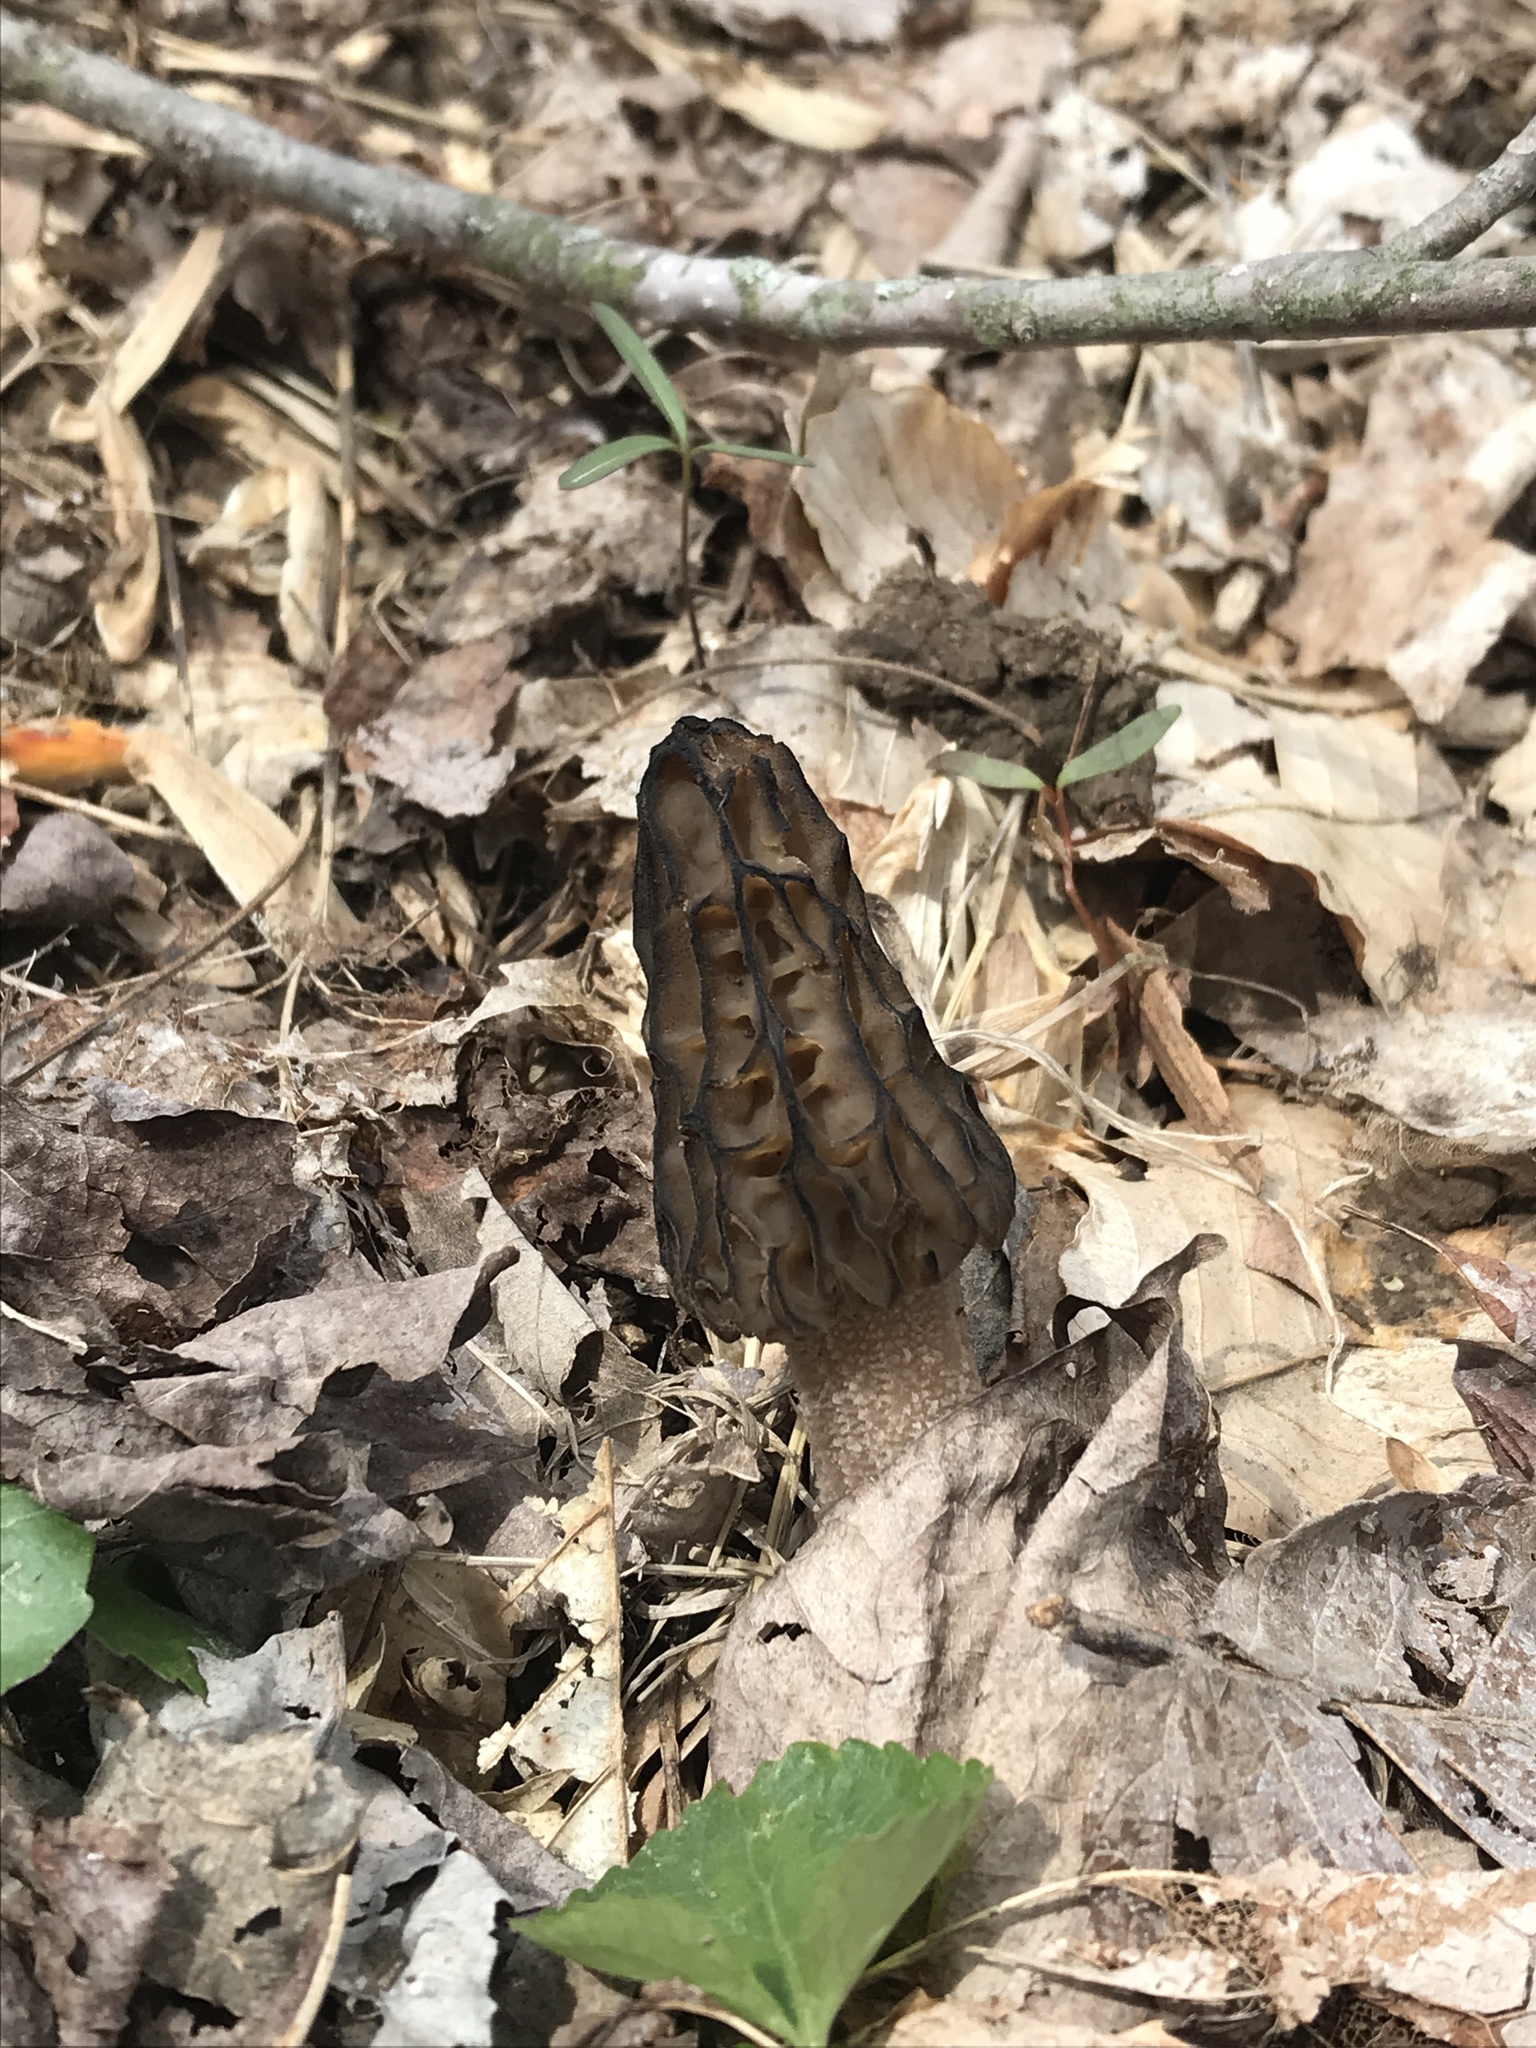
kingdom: Fungi
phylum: Ascomycota
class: Pezizomycetes
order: Pezizales
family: Morchellaceae
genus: Morchella
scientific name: Morchella angusticeps
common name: Black morel
